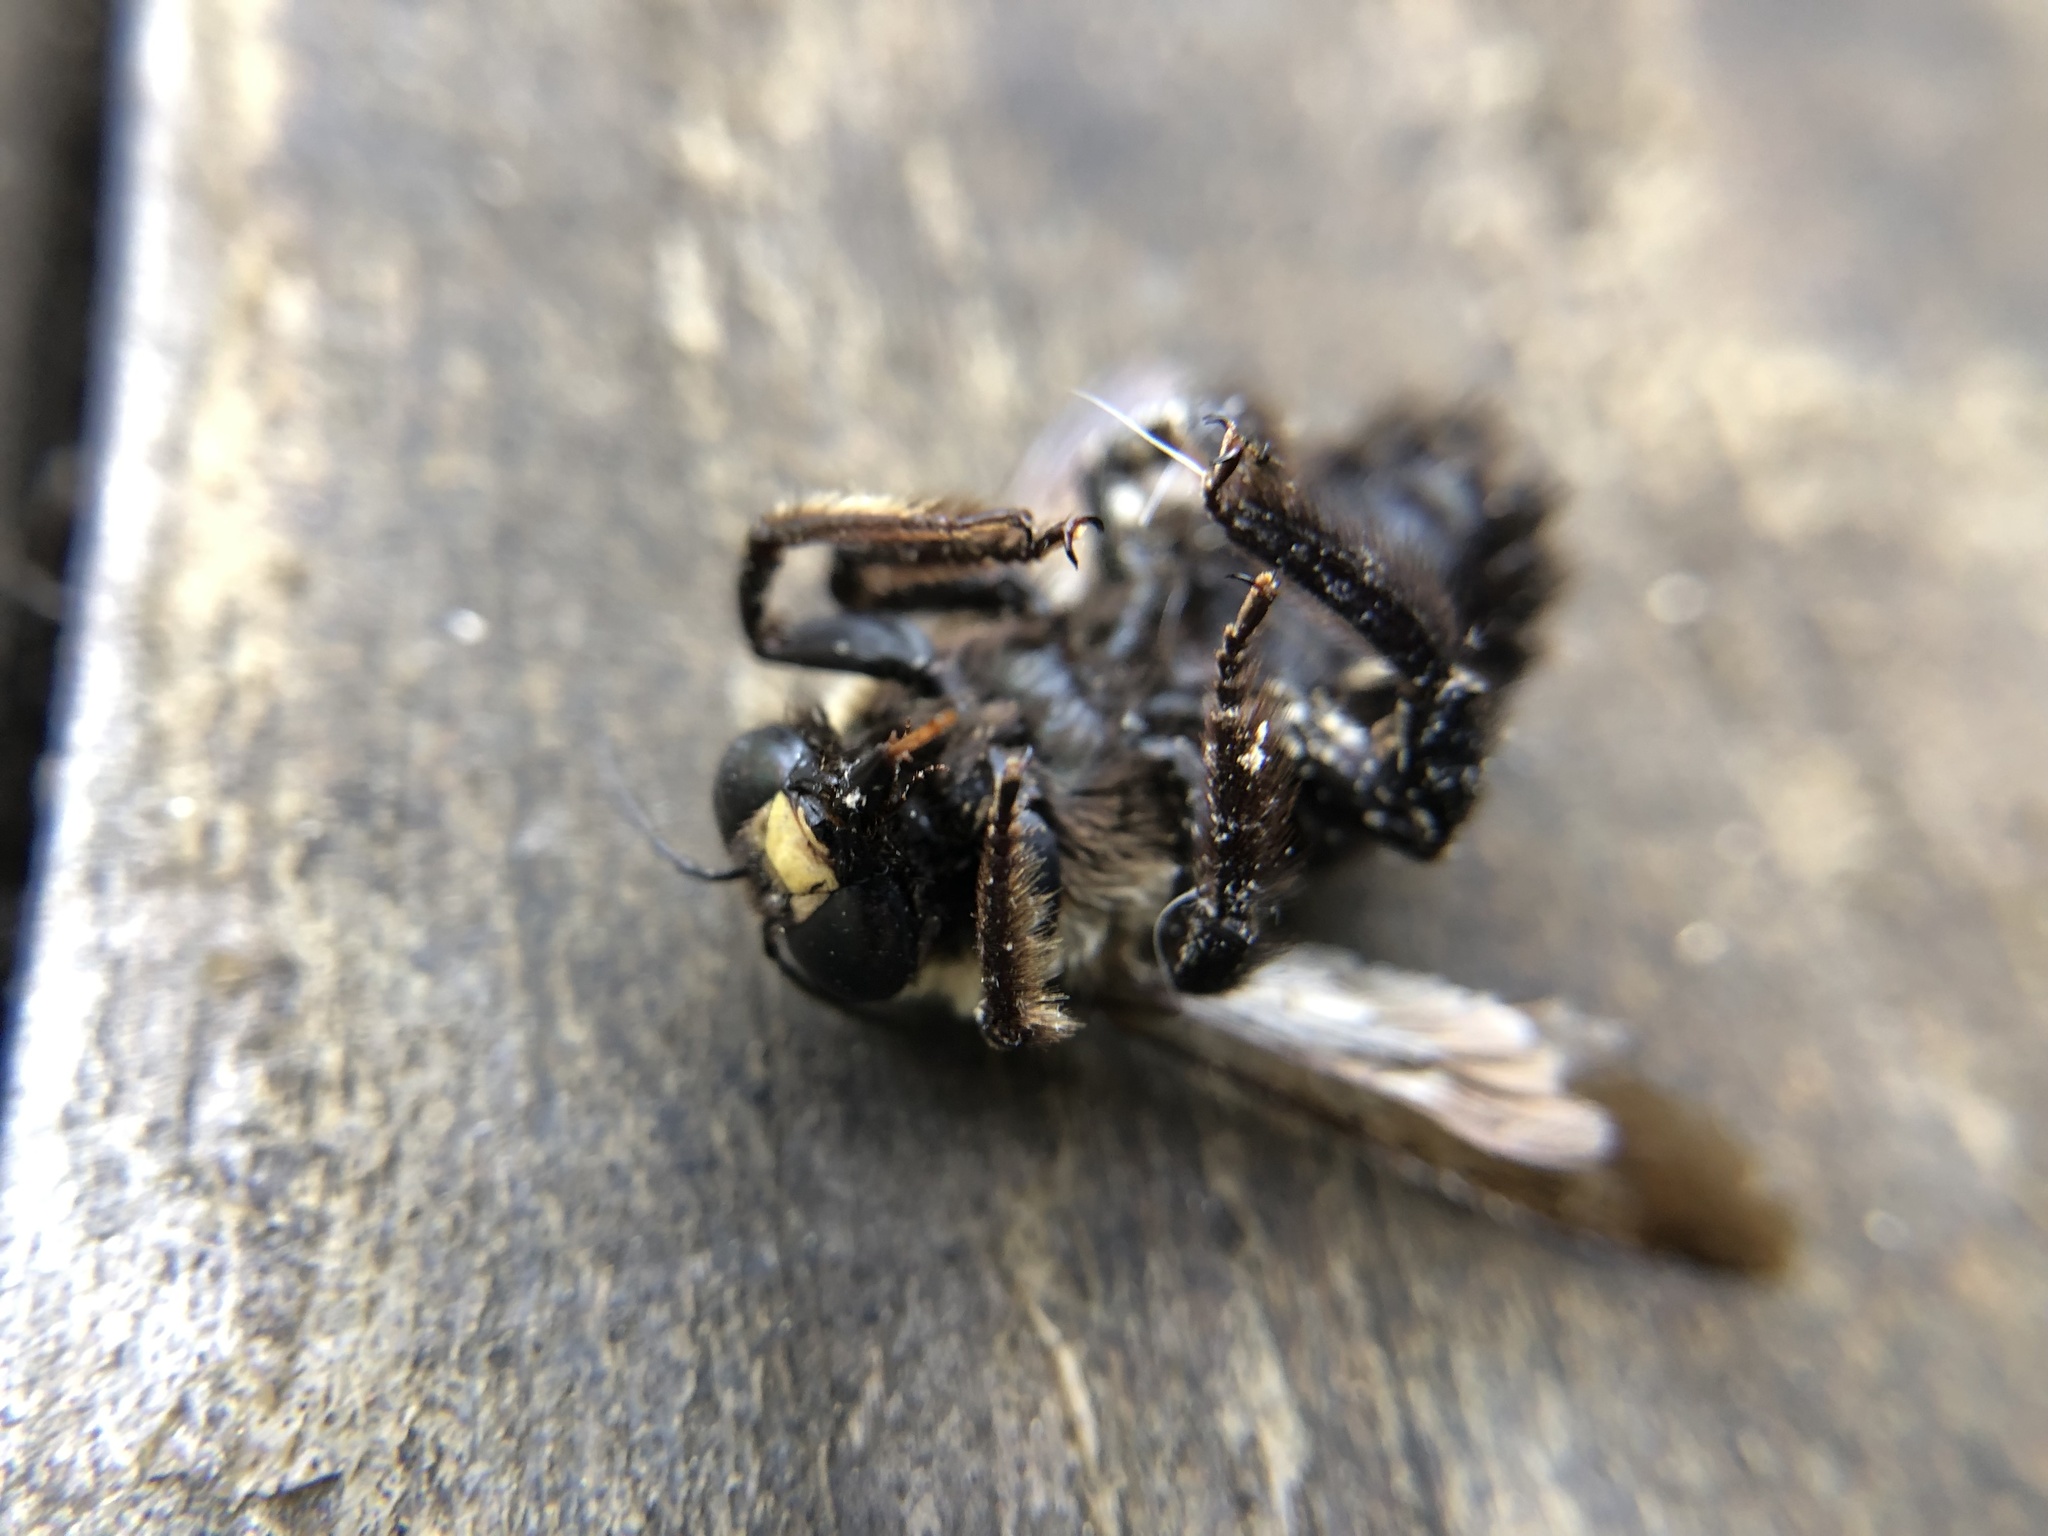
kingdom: Animalia
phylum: Arthropoda
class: Insecta
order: Hymenoptera
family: Apidae
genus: Xylocopa
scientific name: Xylocopa virginica
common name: Carpenter bee
